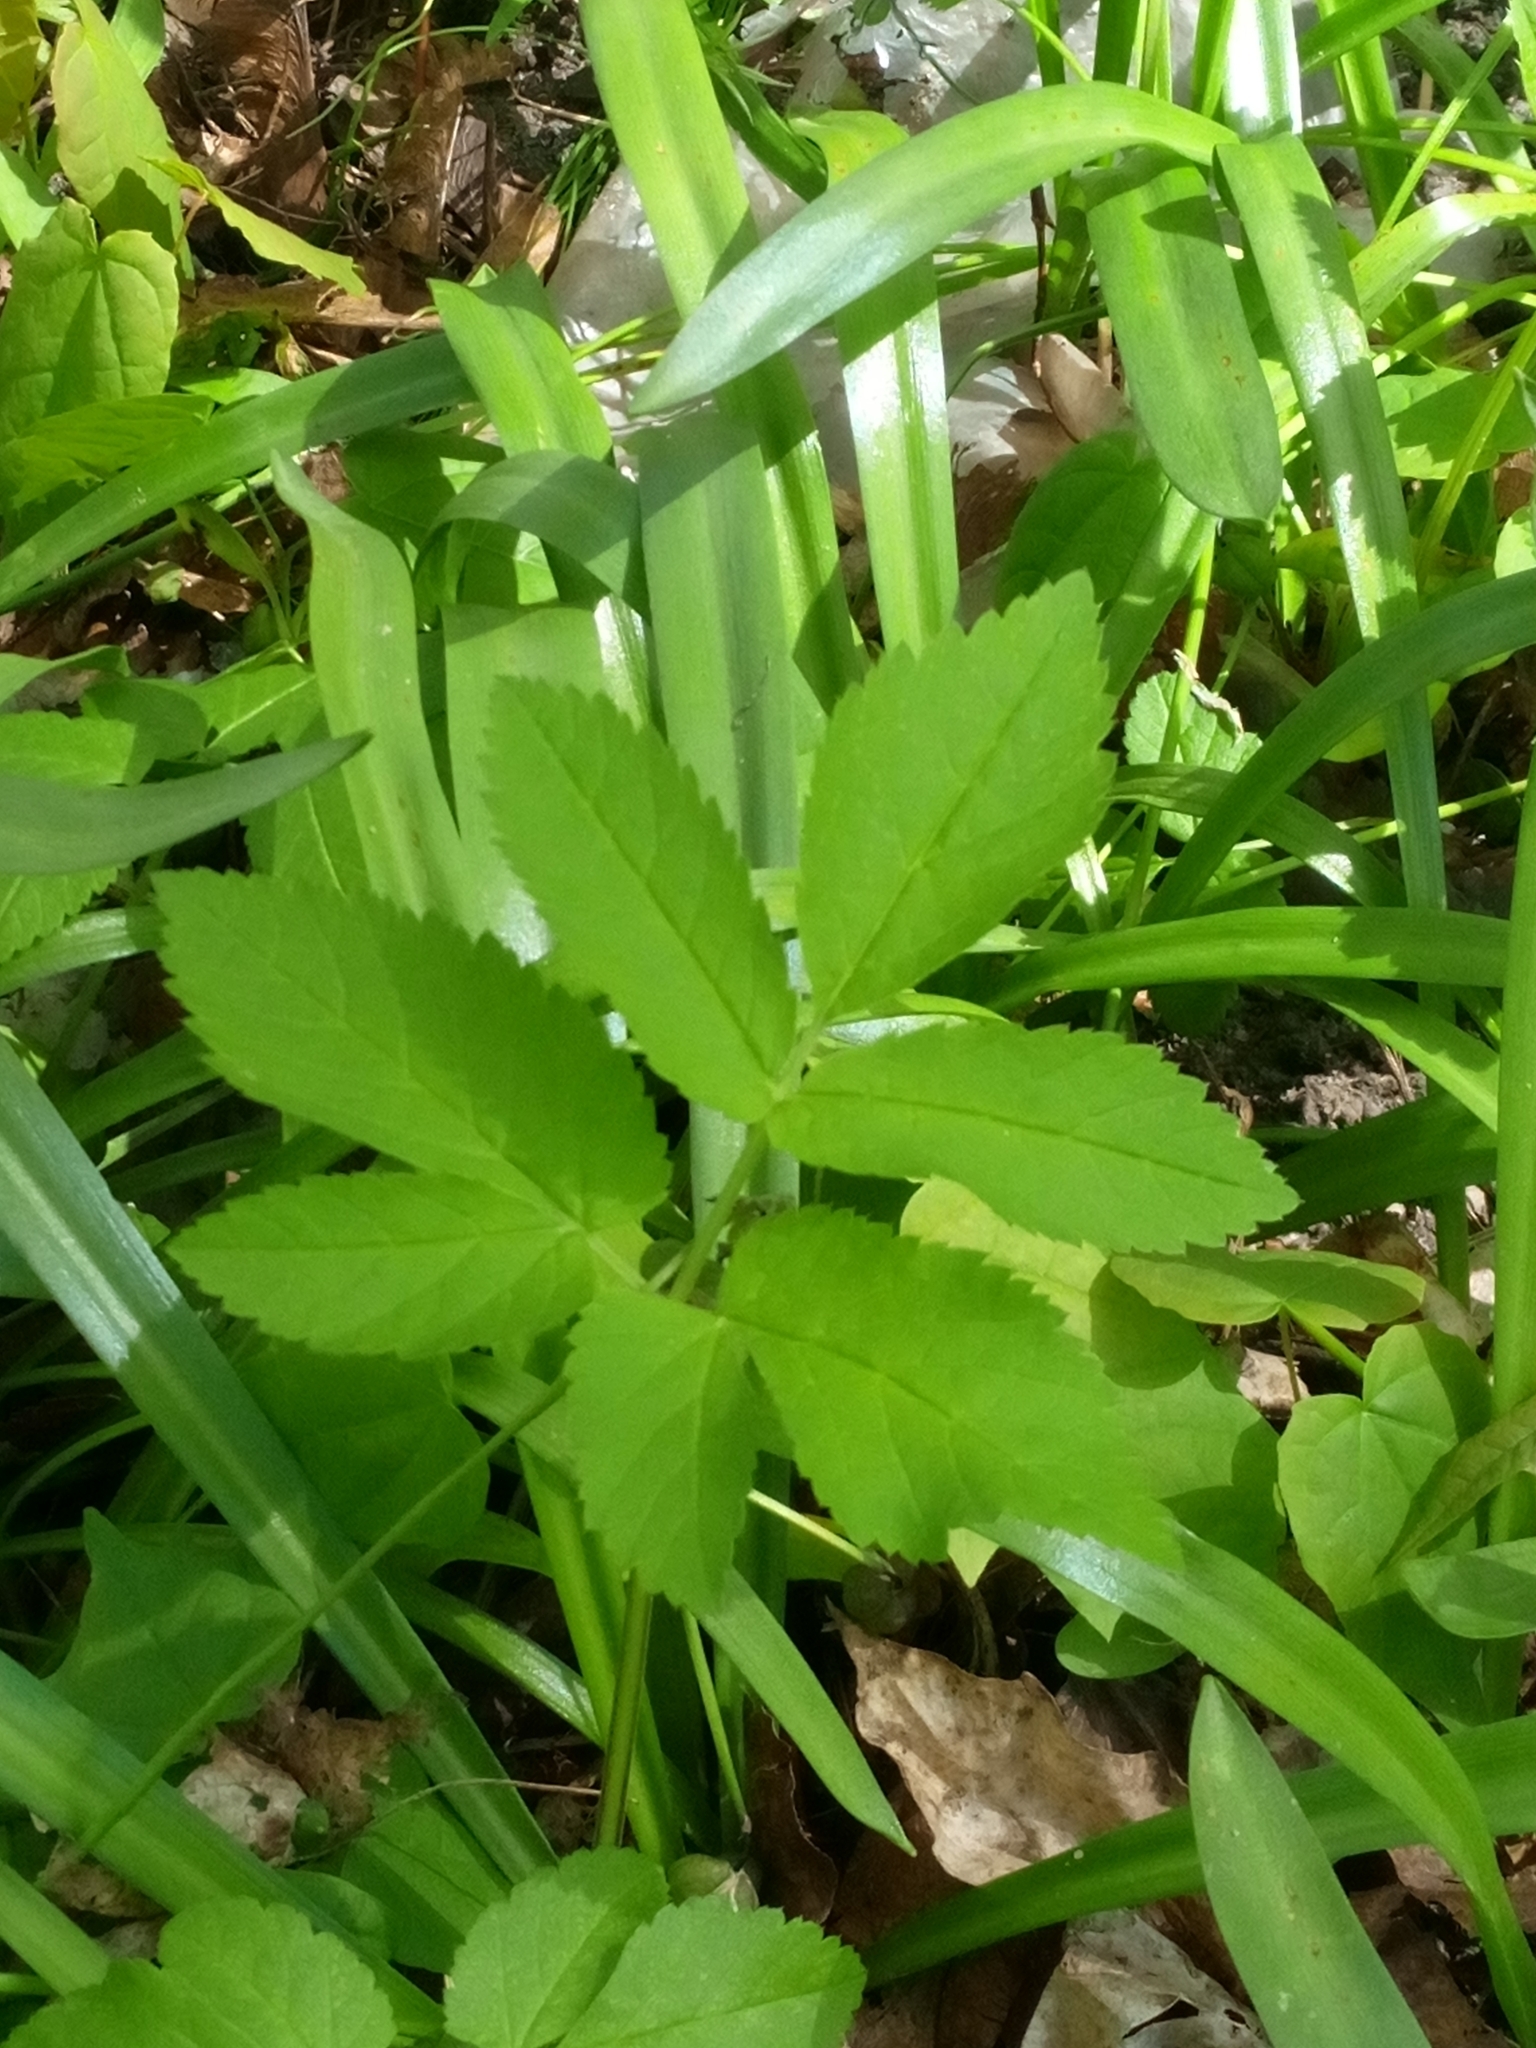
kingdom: Plantae
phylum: Tracheophyta
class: Magnoliopsida
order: Apiales
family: Apiaceae
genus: Aegopodium
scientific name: Aegopodium podagraria
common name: Ground-elder
